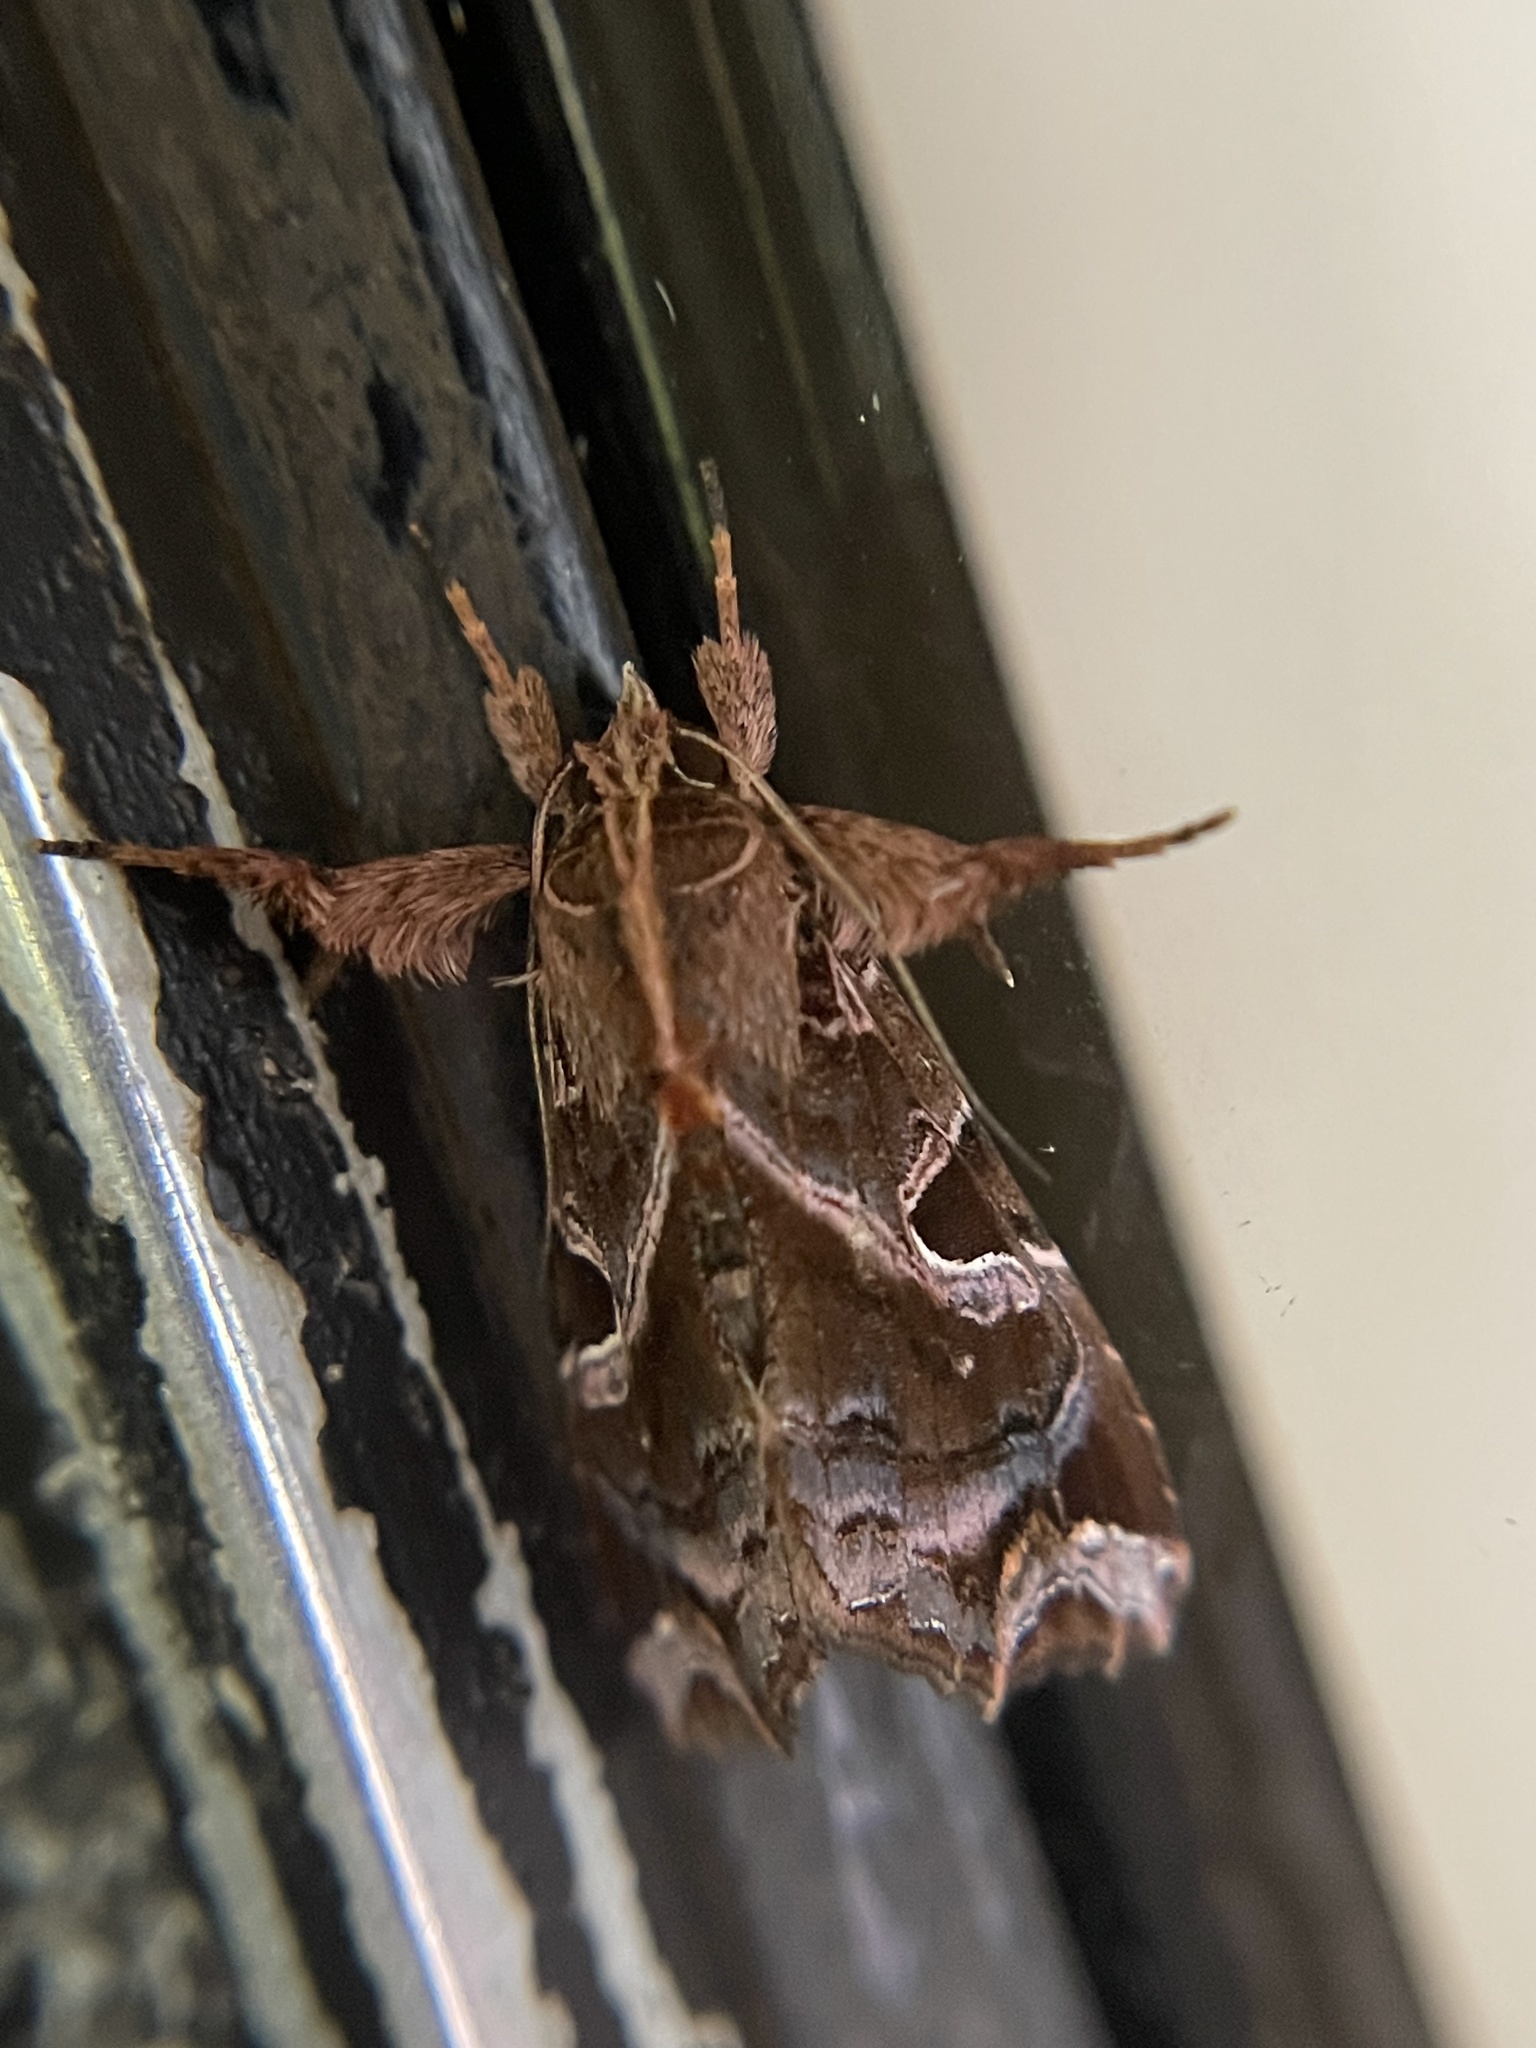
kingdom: Animalia
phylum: Arthropoda
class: Insecta
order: Lepidoptera
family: Noctuidae
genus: Callopistria
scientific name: Callopistria floridensis
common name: Florida fern moth
